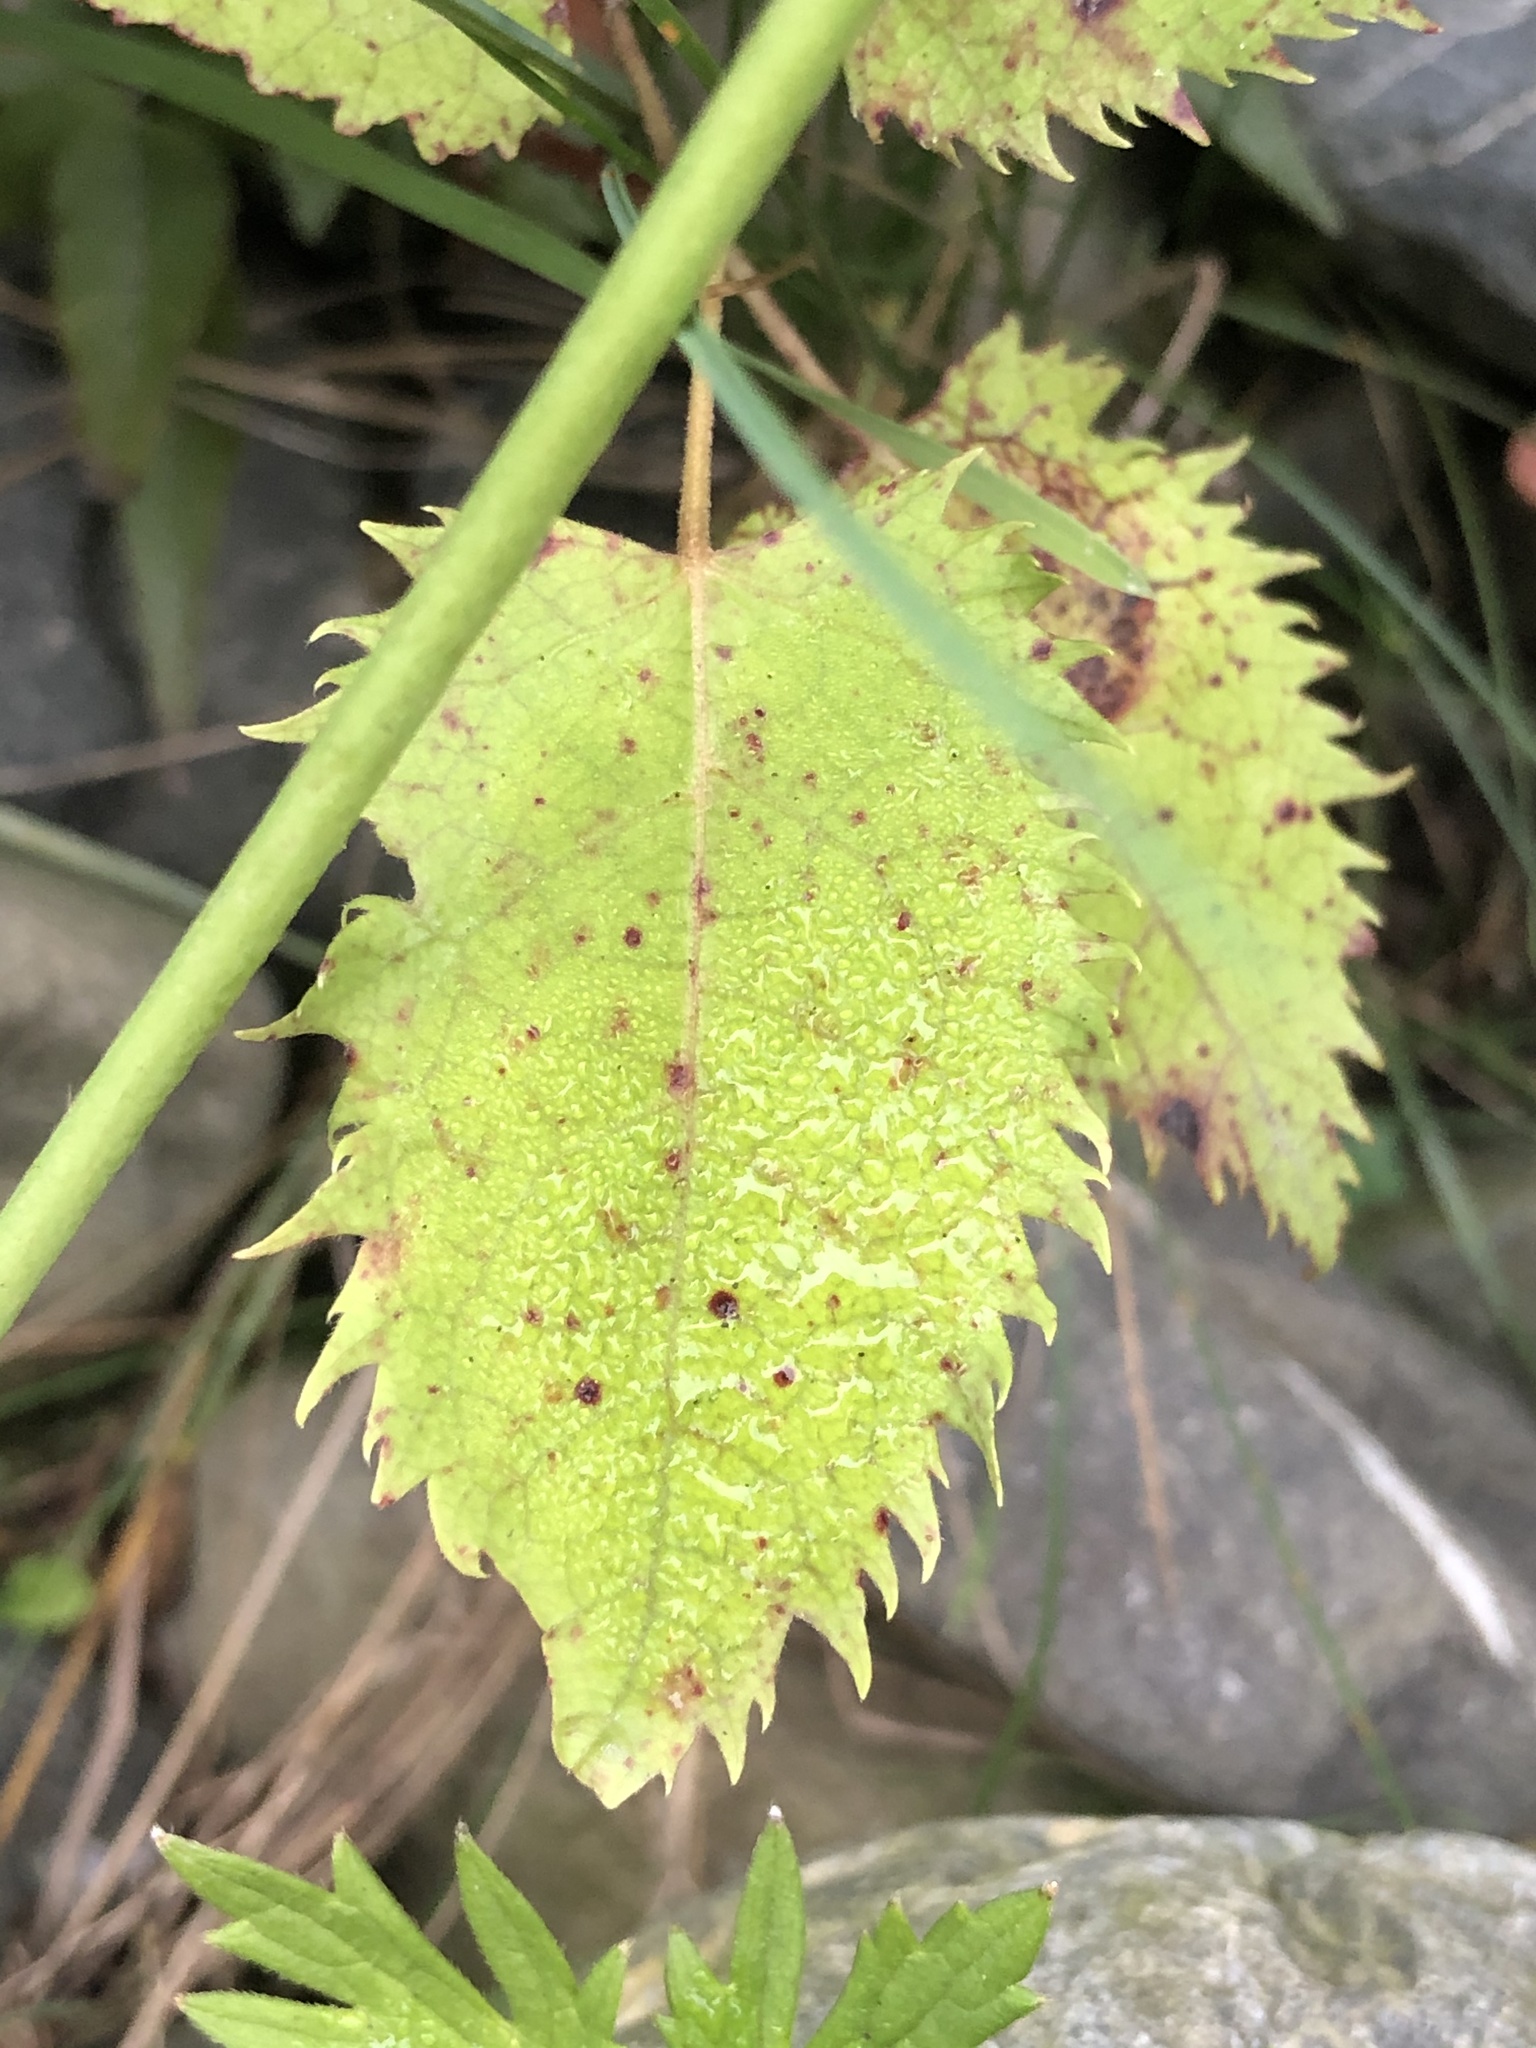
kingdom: Plantae
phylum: Tracheophyta
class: Magnoliopsida
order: Oxalidales
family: Elaeocarpaceae
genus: Aristotelia
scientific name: Aristotelia serrata
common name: New zealand wineberry
